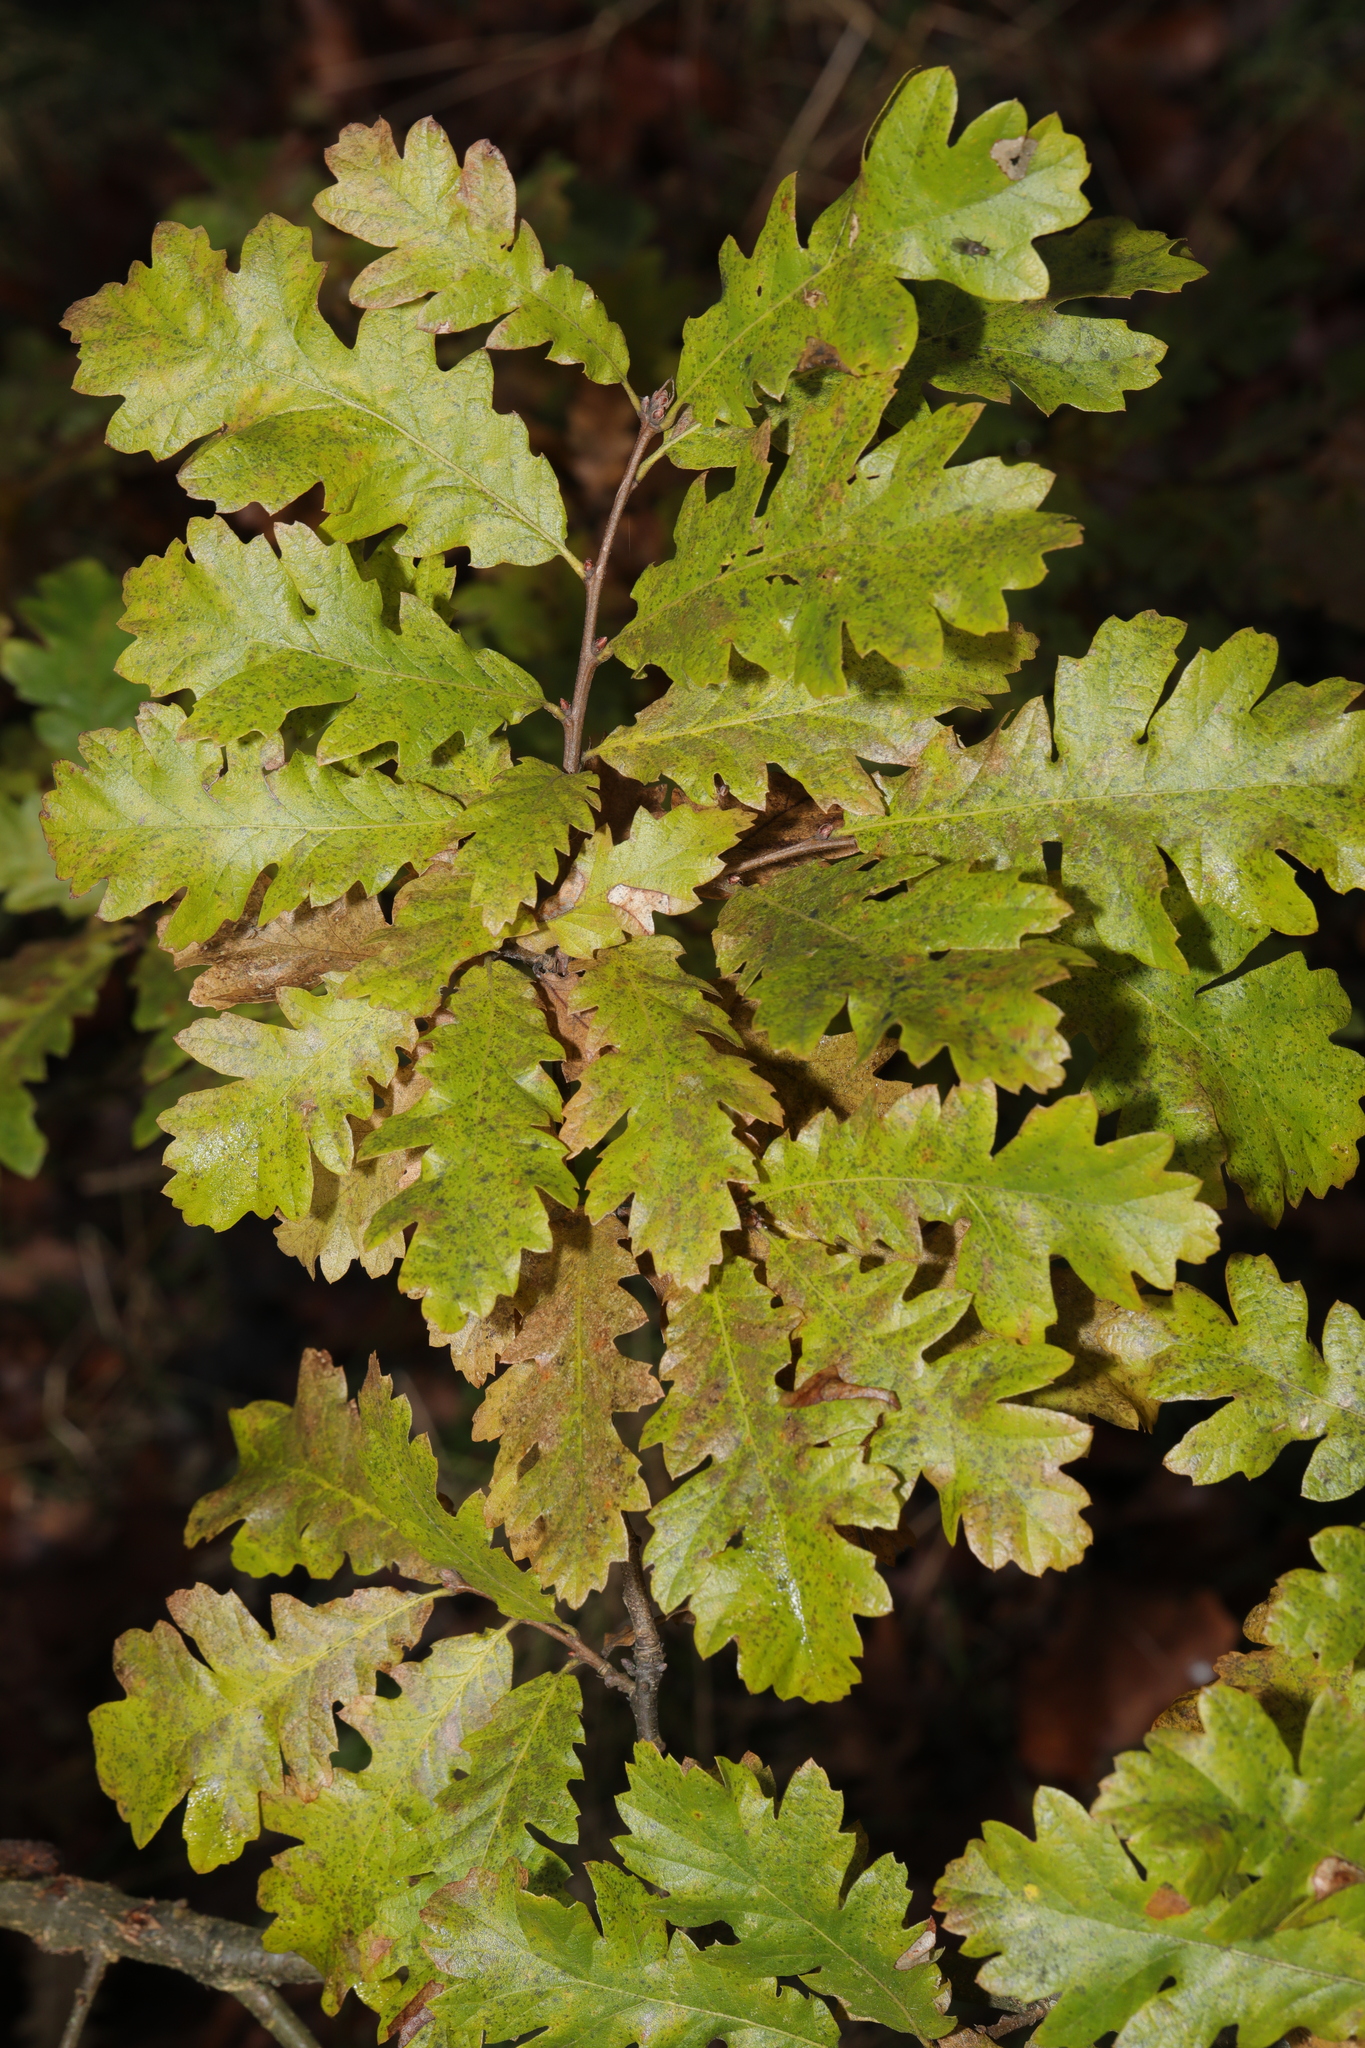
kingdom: Plantae
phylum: Tracheophyta
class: Magnoliopsida
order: Fagales
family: Fagaceae
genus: Quercus
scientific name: Quercus cerris
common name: Turkey oak
